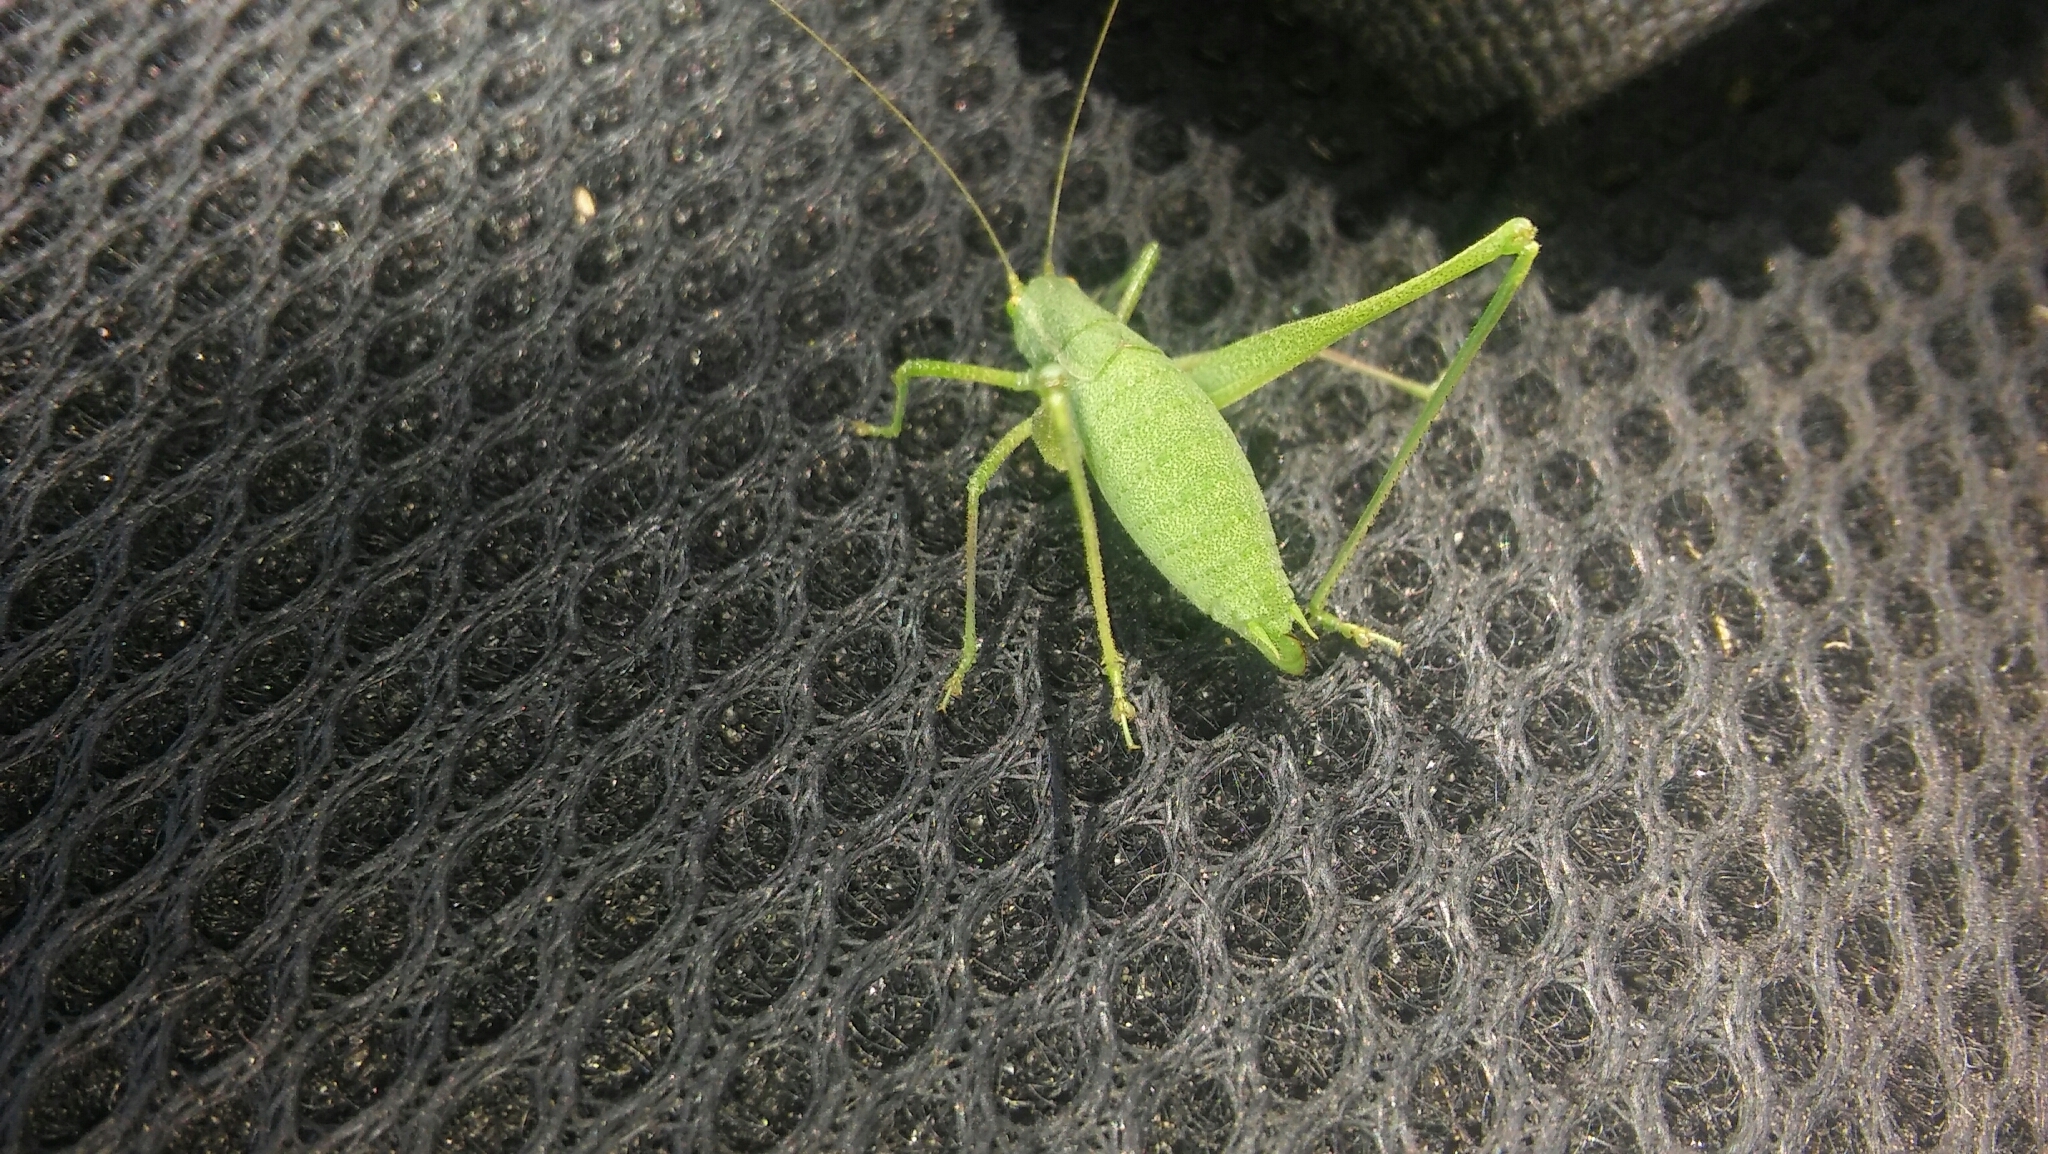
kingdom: Animalia
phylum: Arthropoda
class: Insecta
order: Orthoptera
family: Tettigoniidae
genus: Anisophya
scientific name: Anisophya punctinervis
